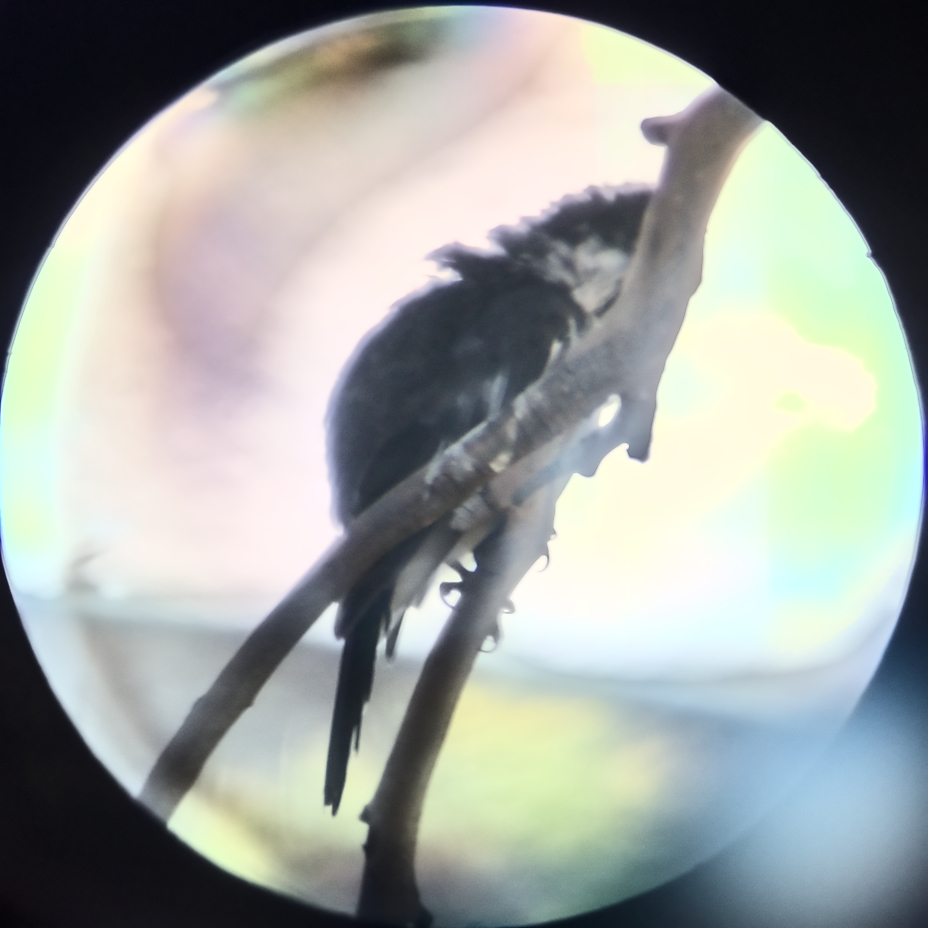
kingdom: Animalia
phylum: Chordata
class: Aves
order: Passeriformes
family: Cracticidae
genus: Cracticus
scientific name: Cracticus torquatus
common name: Grey butcherbird
